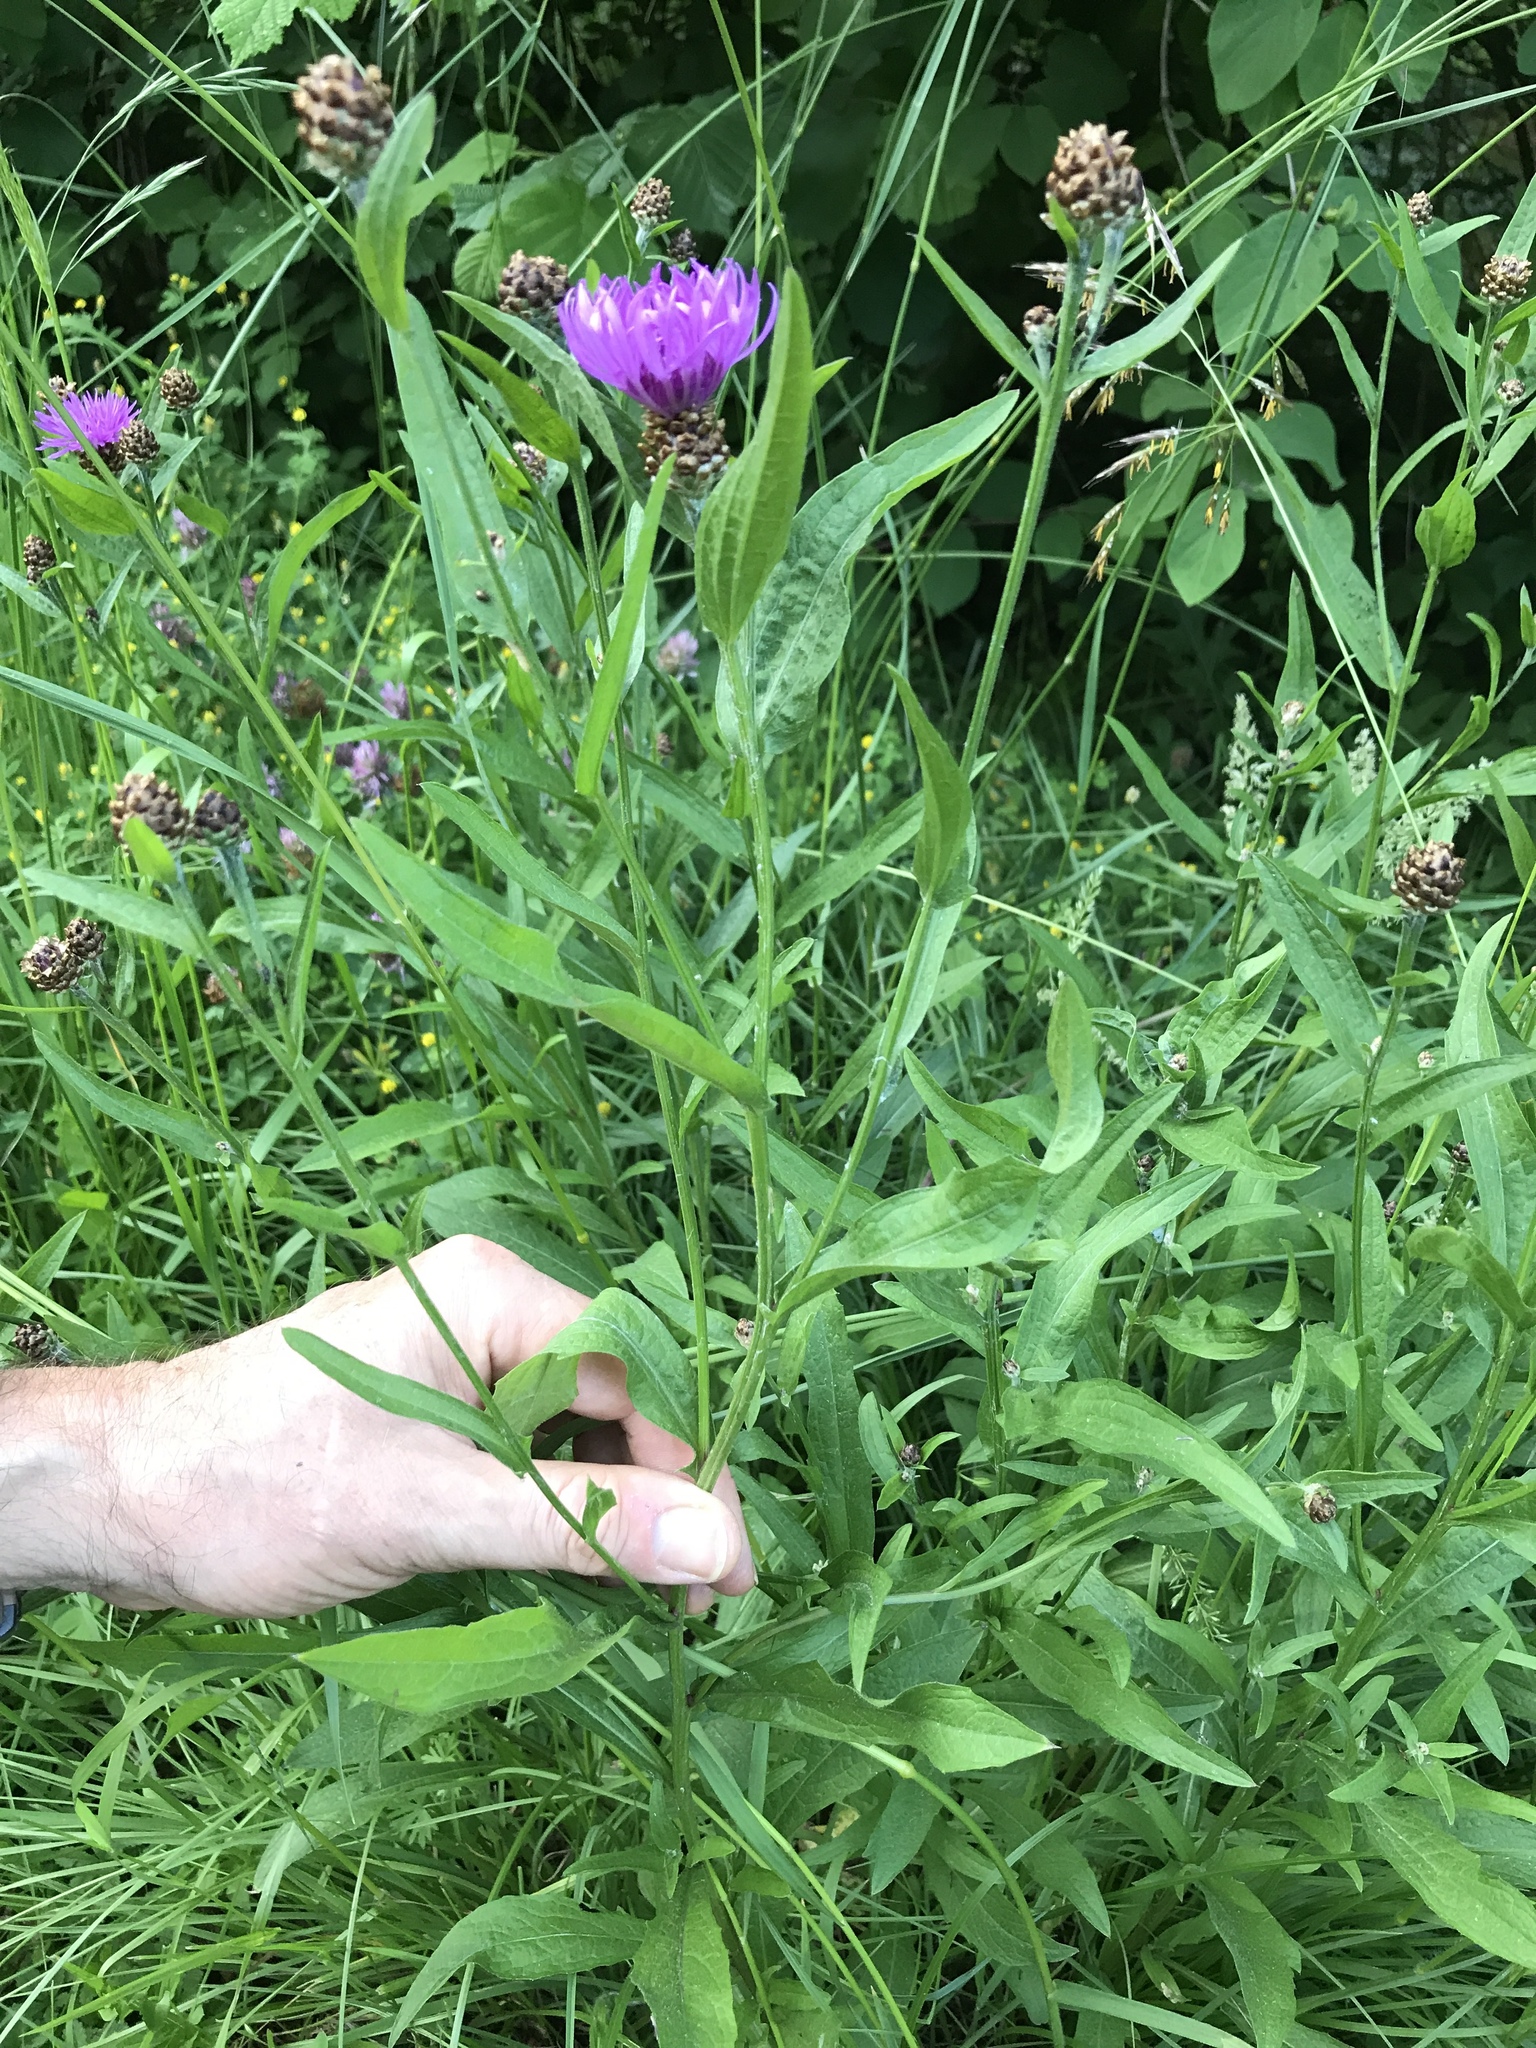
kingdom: Plantae
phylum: Tracheophyta
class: Magnoliopsida
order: Asterales
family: Asteraceae
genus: Centaurea
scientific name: Centaurea jacea
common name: Brown knapweed
